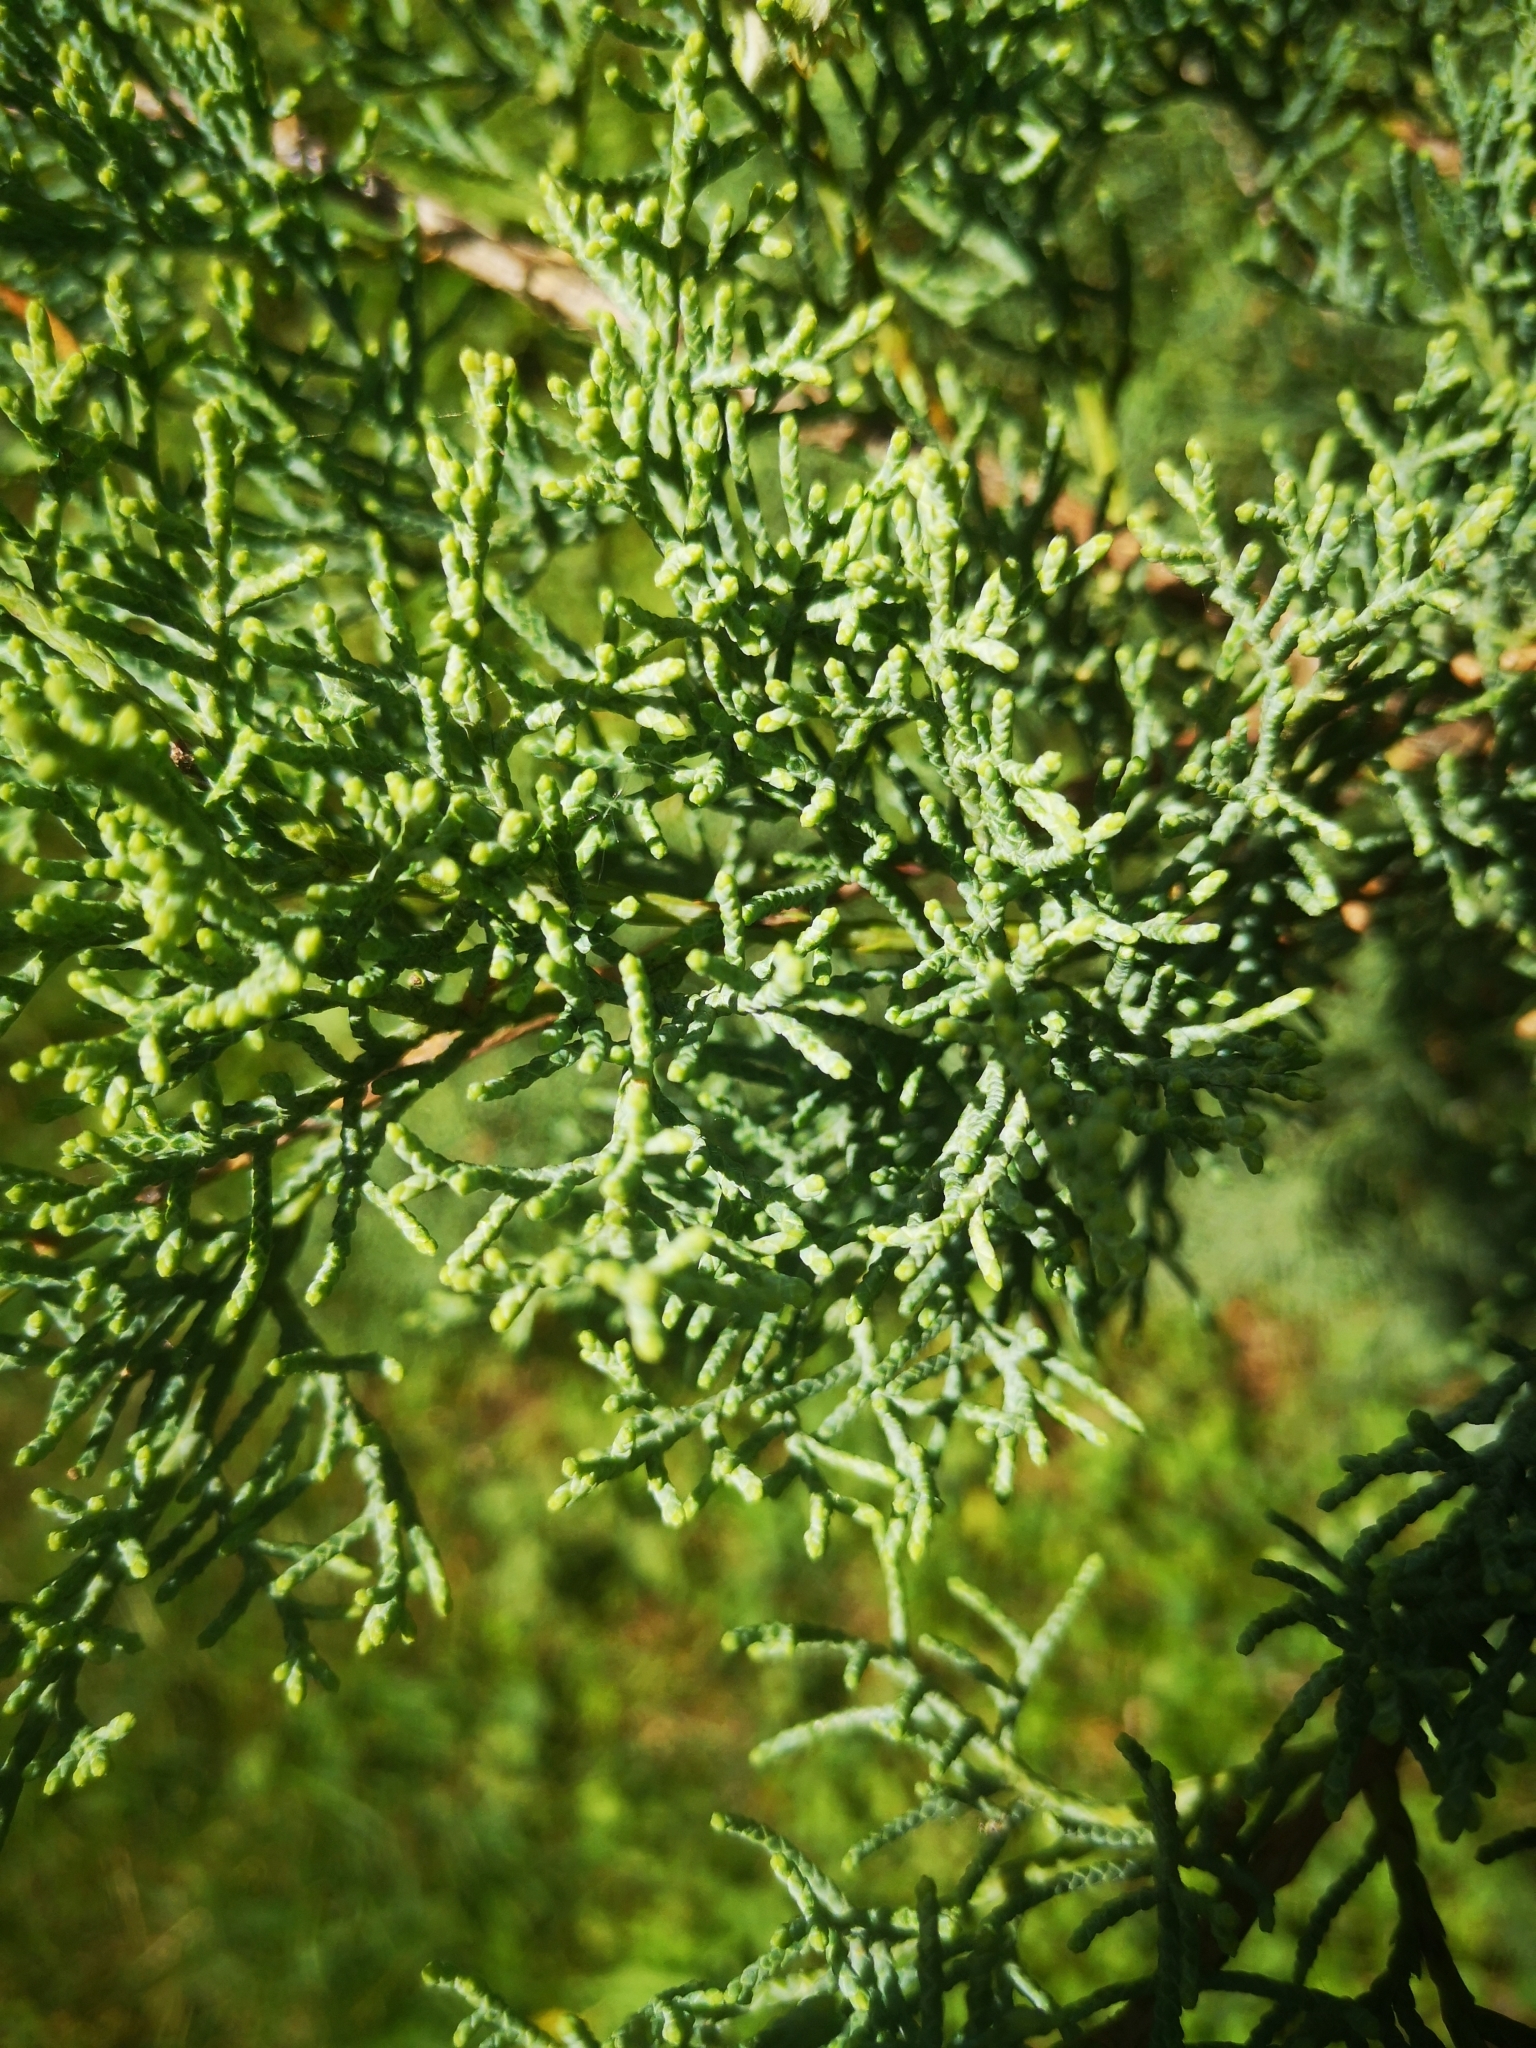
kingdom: Plantae
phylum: Tracheophyta
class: Pinopsida
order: Pinales
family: Cupressaceae
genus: Juniperus
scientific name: Juniperus virginiana
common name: Red juniper
